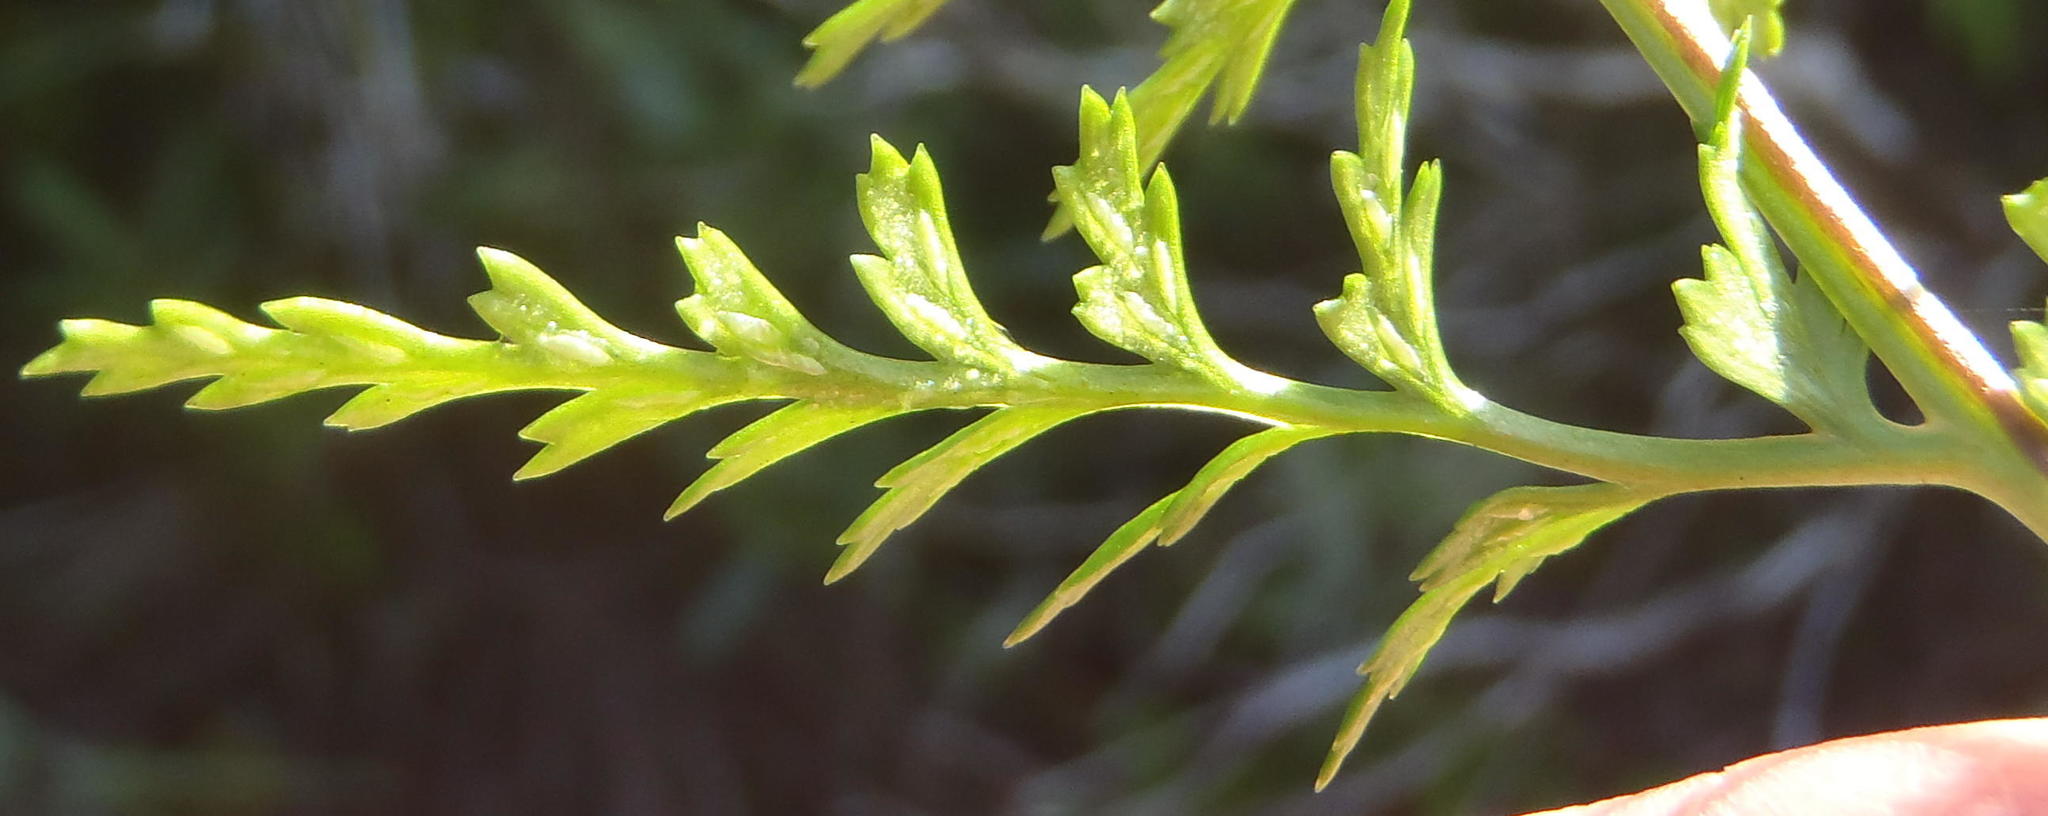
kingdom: Plantae
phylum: Tracheophyta
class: Polypodiopsida
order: Polypodiales
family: Aspleniaceae
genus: Asplenium
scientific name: Asplenium adiantum-nigrum
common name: Black spleenwort
